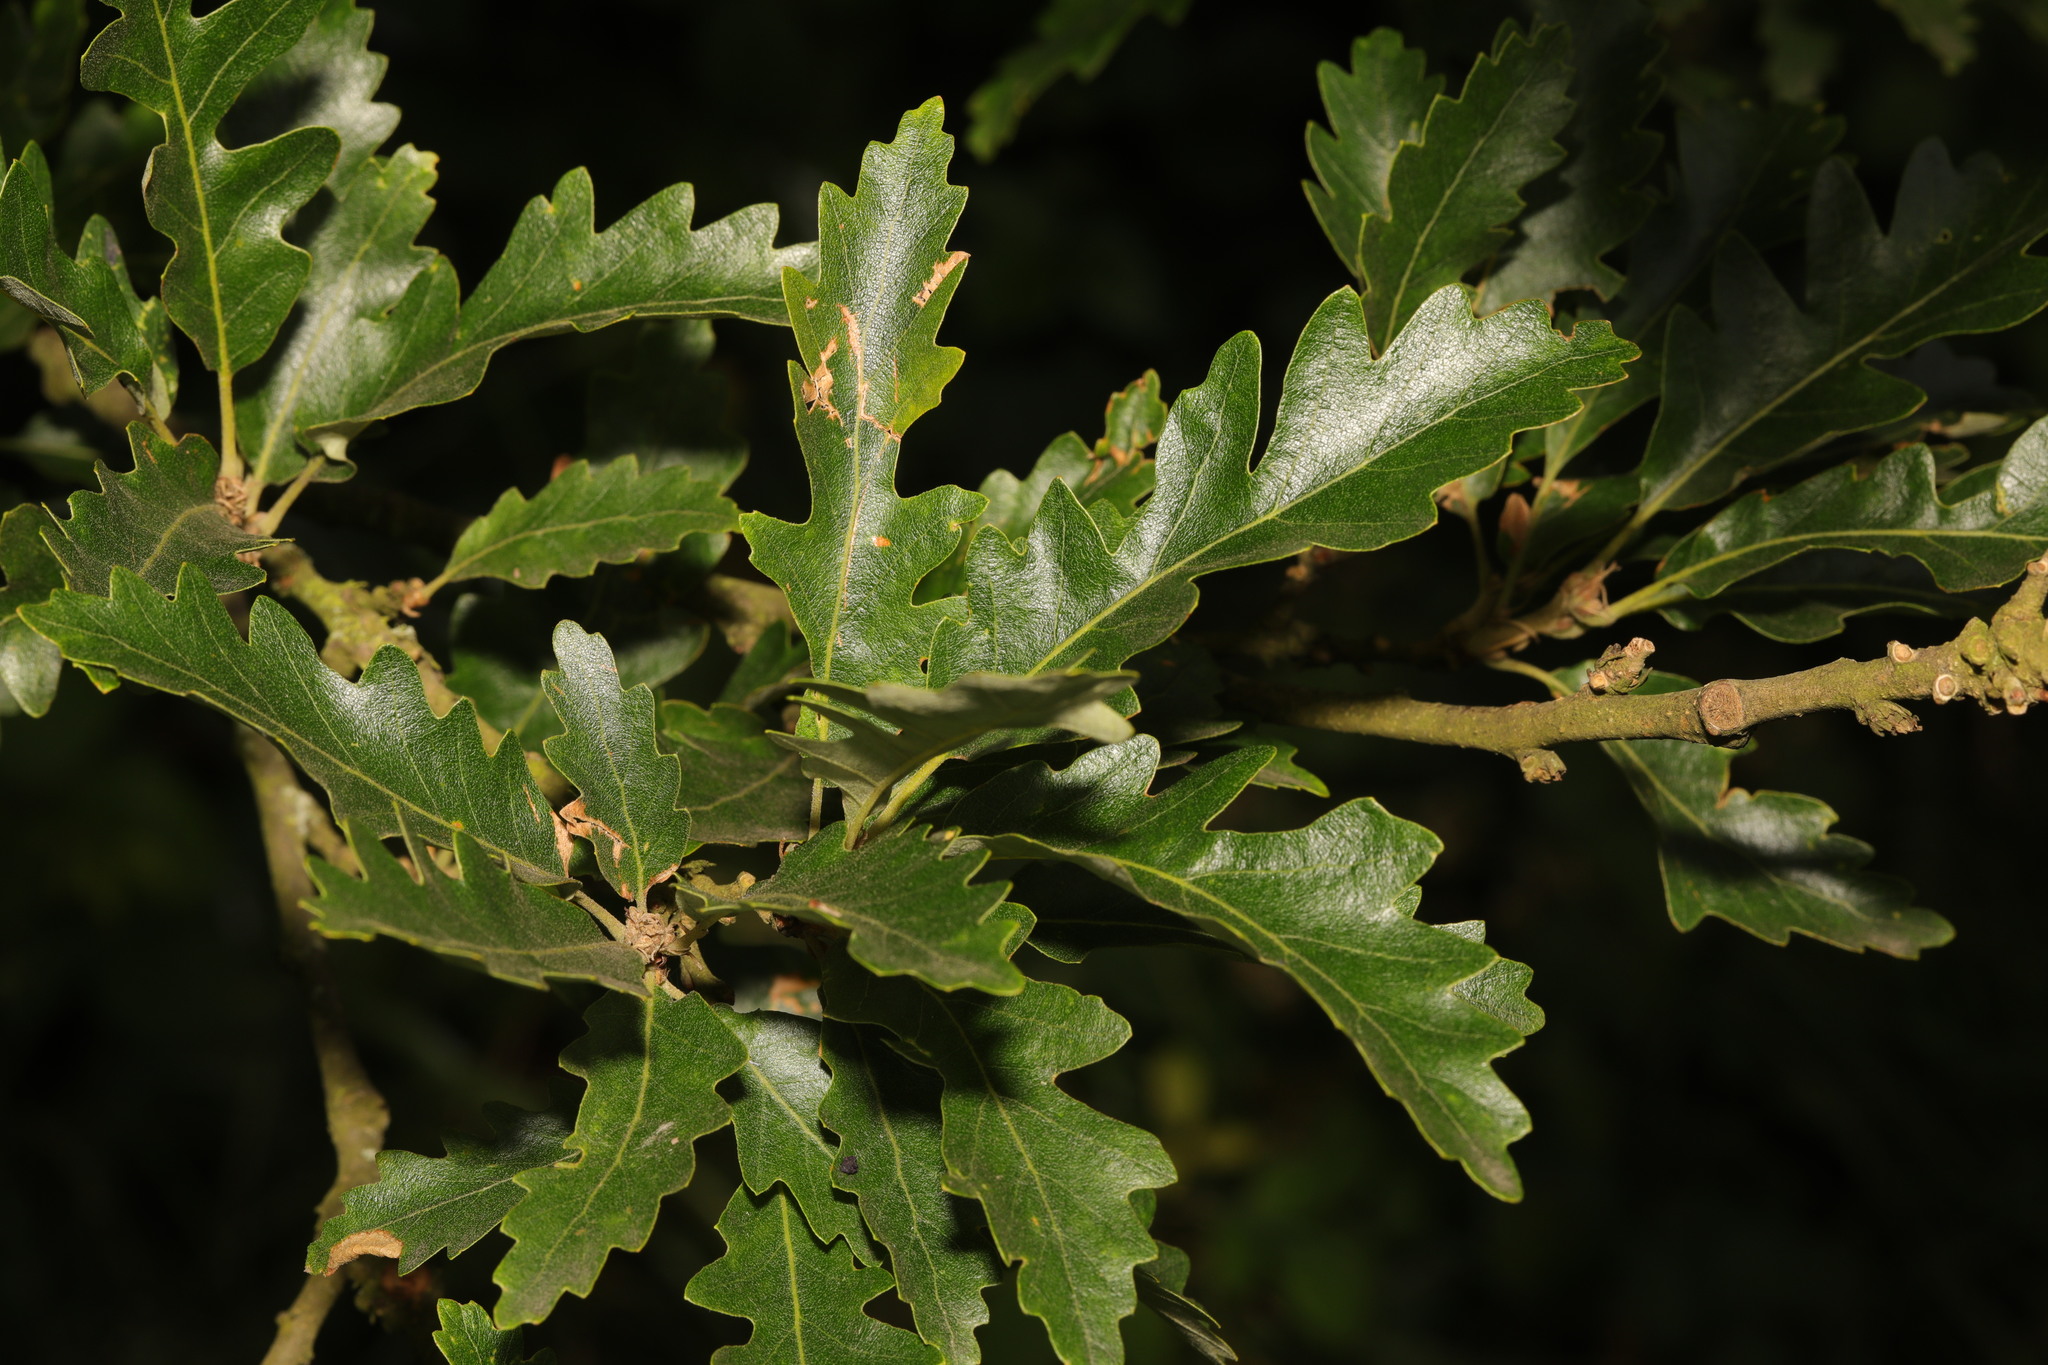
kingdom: Plantae
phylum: Tracheophyta
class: Magnoliopsida
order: Fagales
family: Fagaceae
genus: Quercus
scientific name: Quercus cerris
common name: Turkey oak
